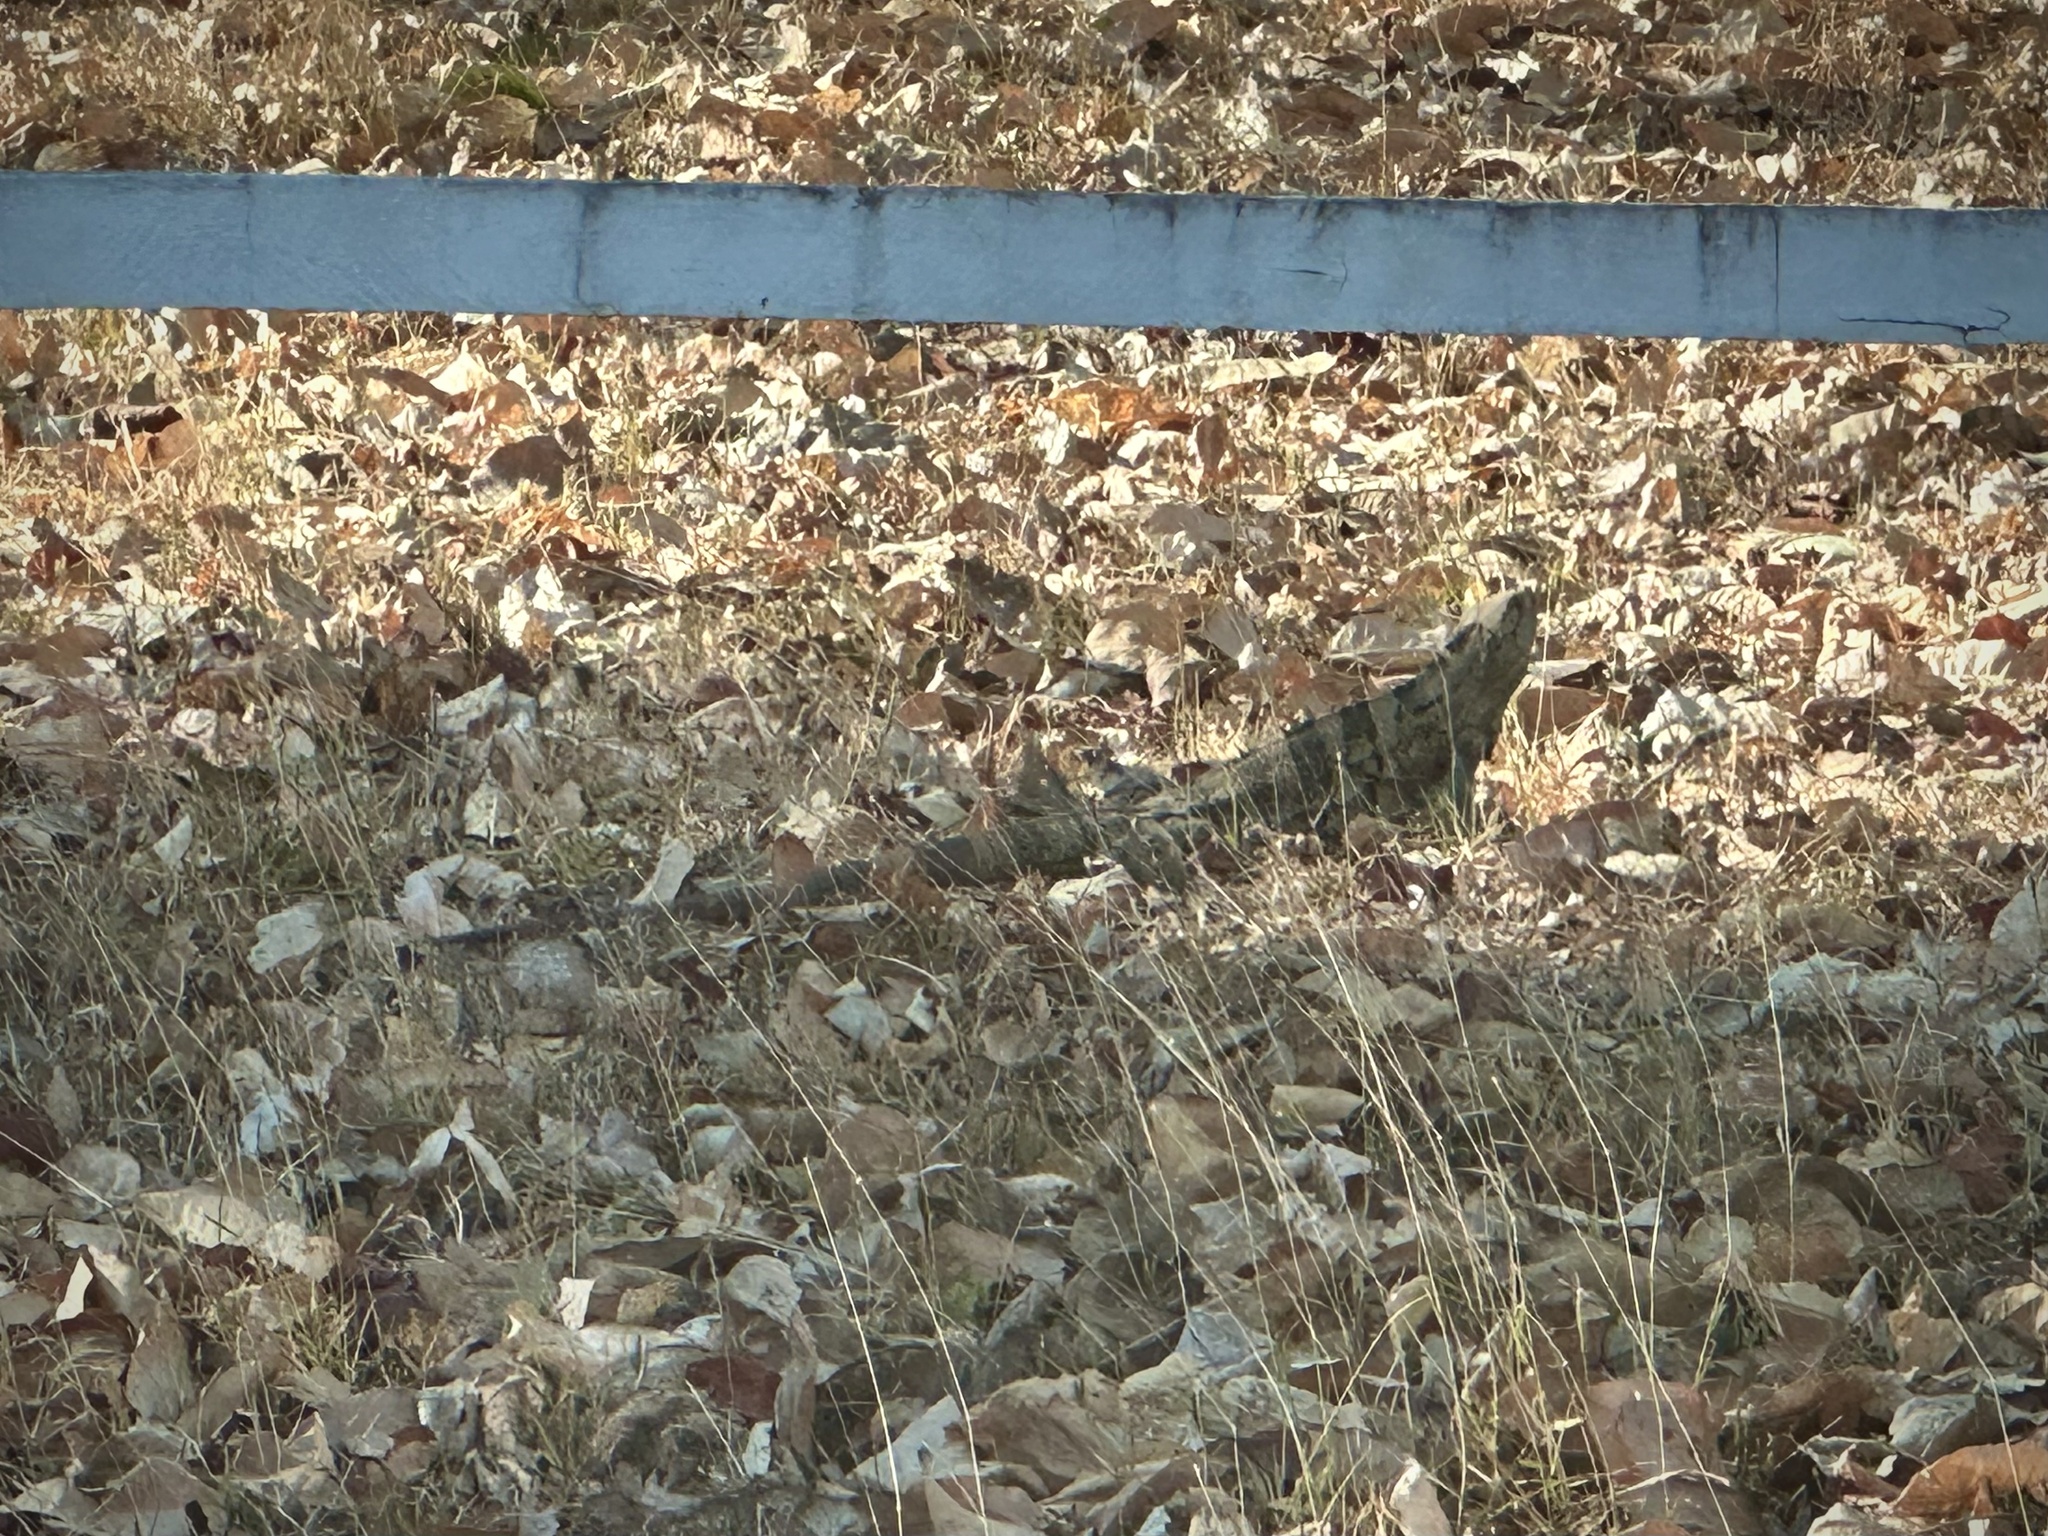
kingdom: Animalia
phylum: Chordata
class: Squamata
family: Iguanidae
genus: Ctenosaura
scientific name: Ctenosaura similis
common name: Black spiny-tailed iguana
